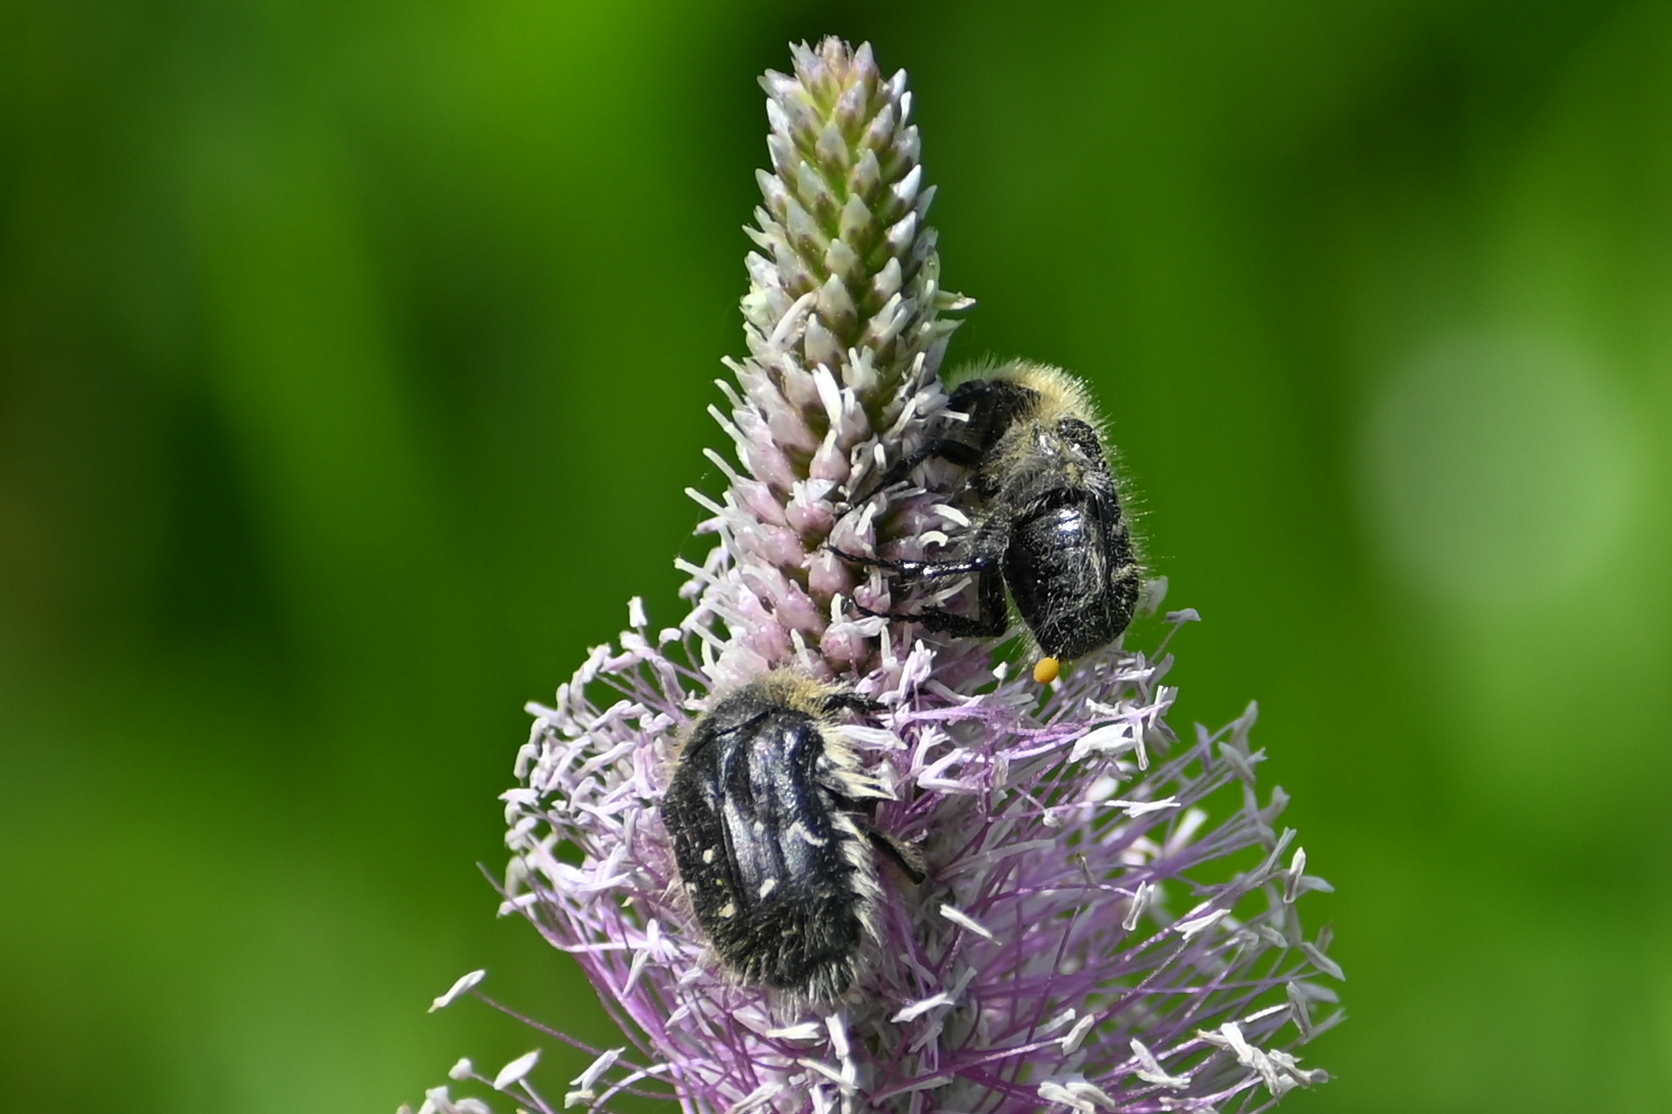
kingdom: Animalia
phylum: Arthropoda
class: Insecta
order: Coleoptera
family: Scarabaeidae
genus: Tropinota
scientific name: Tropinota hirta
